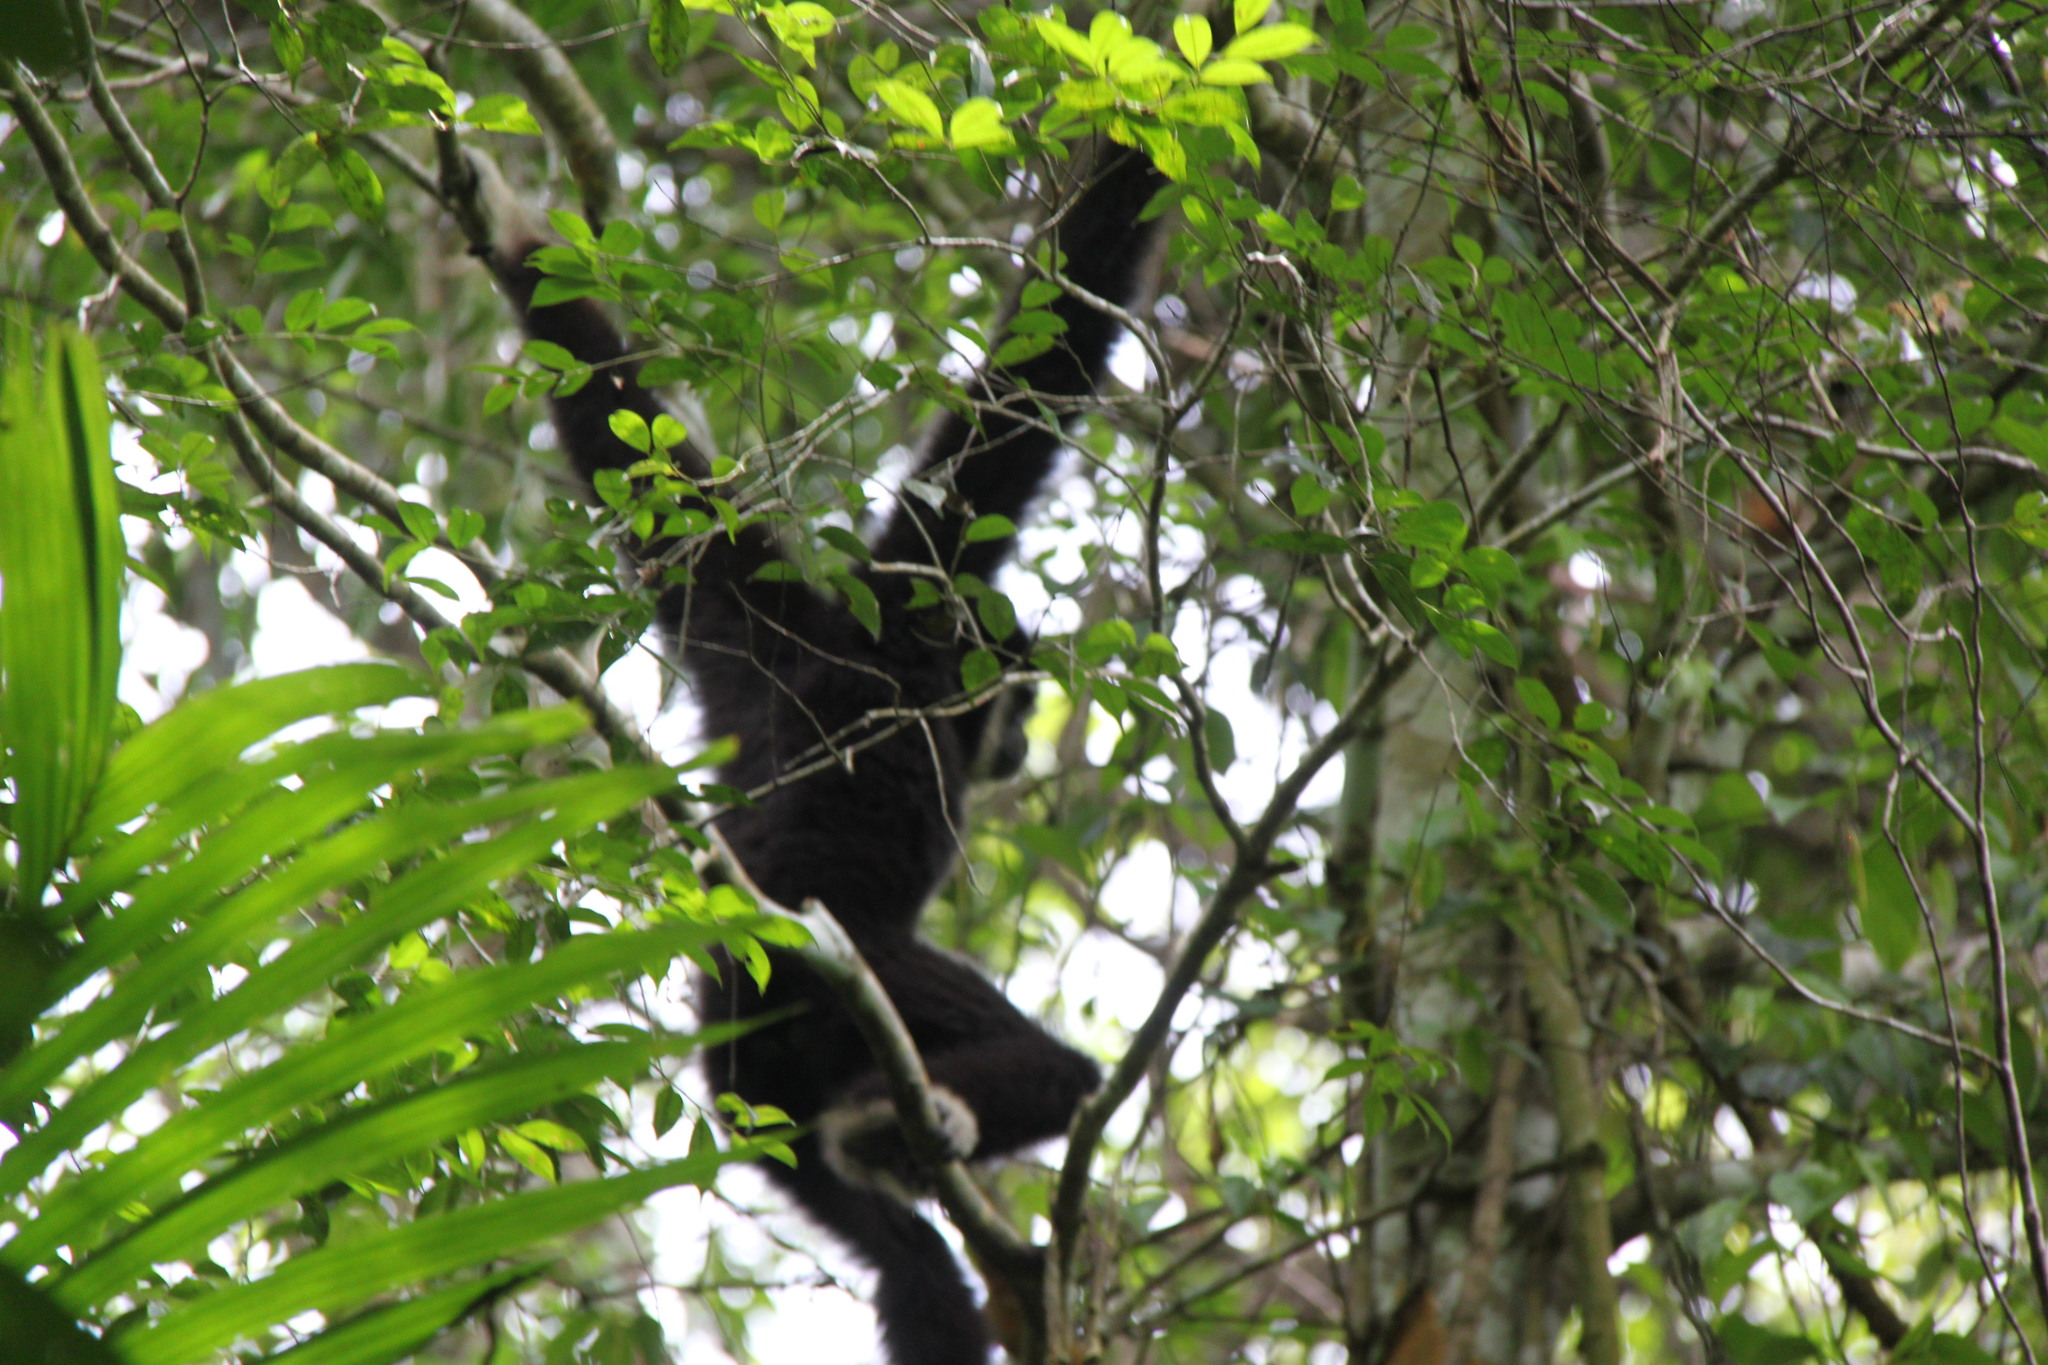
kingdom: Animalia
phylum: Chordata
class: Mammalia
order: Primates
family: Hylobatidae
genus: Hylobates
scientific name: Hylobates lar
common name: Lar gibbon
